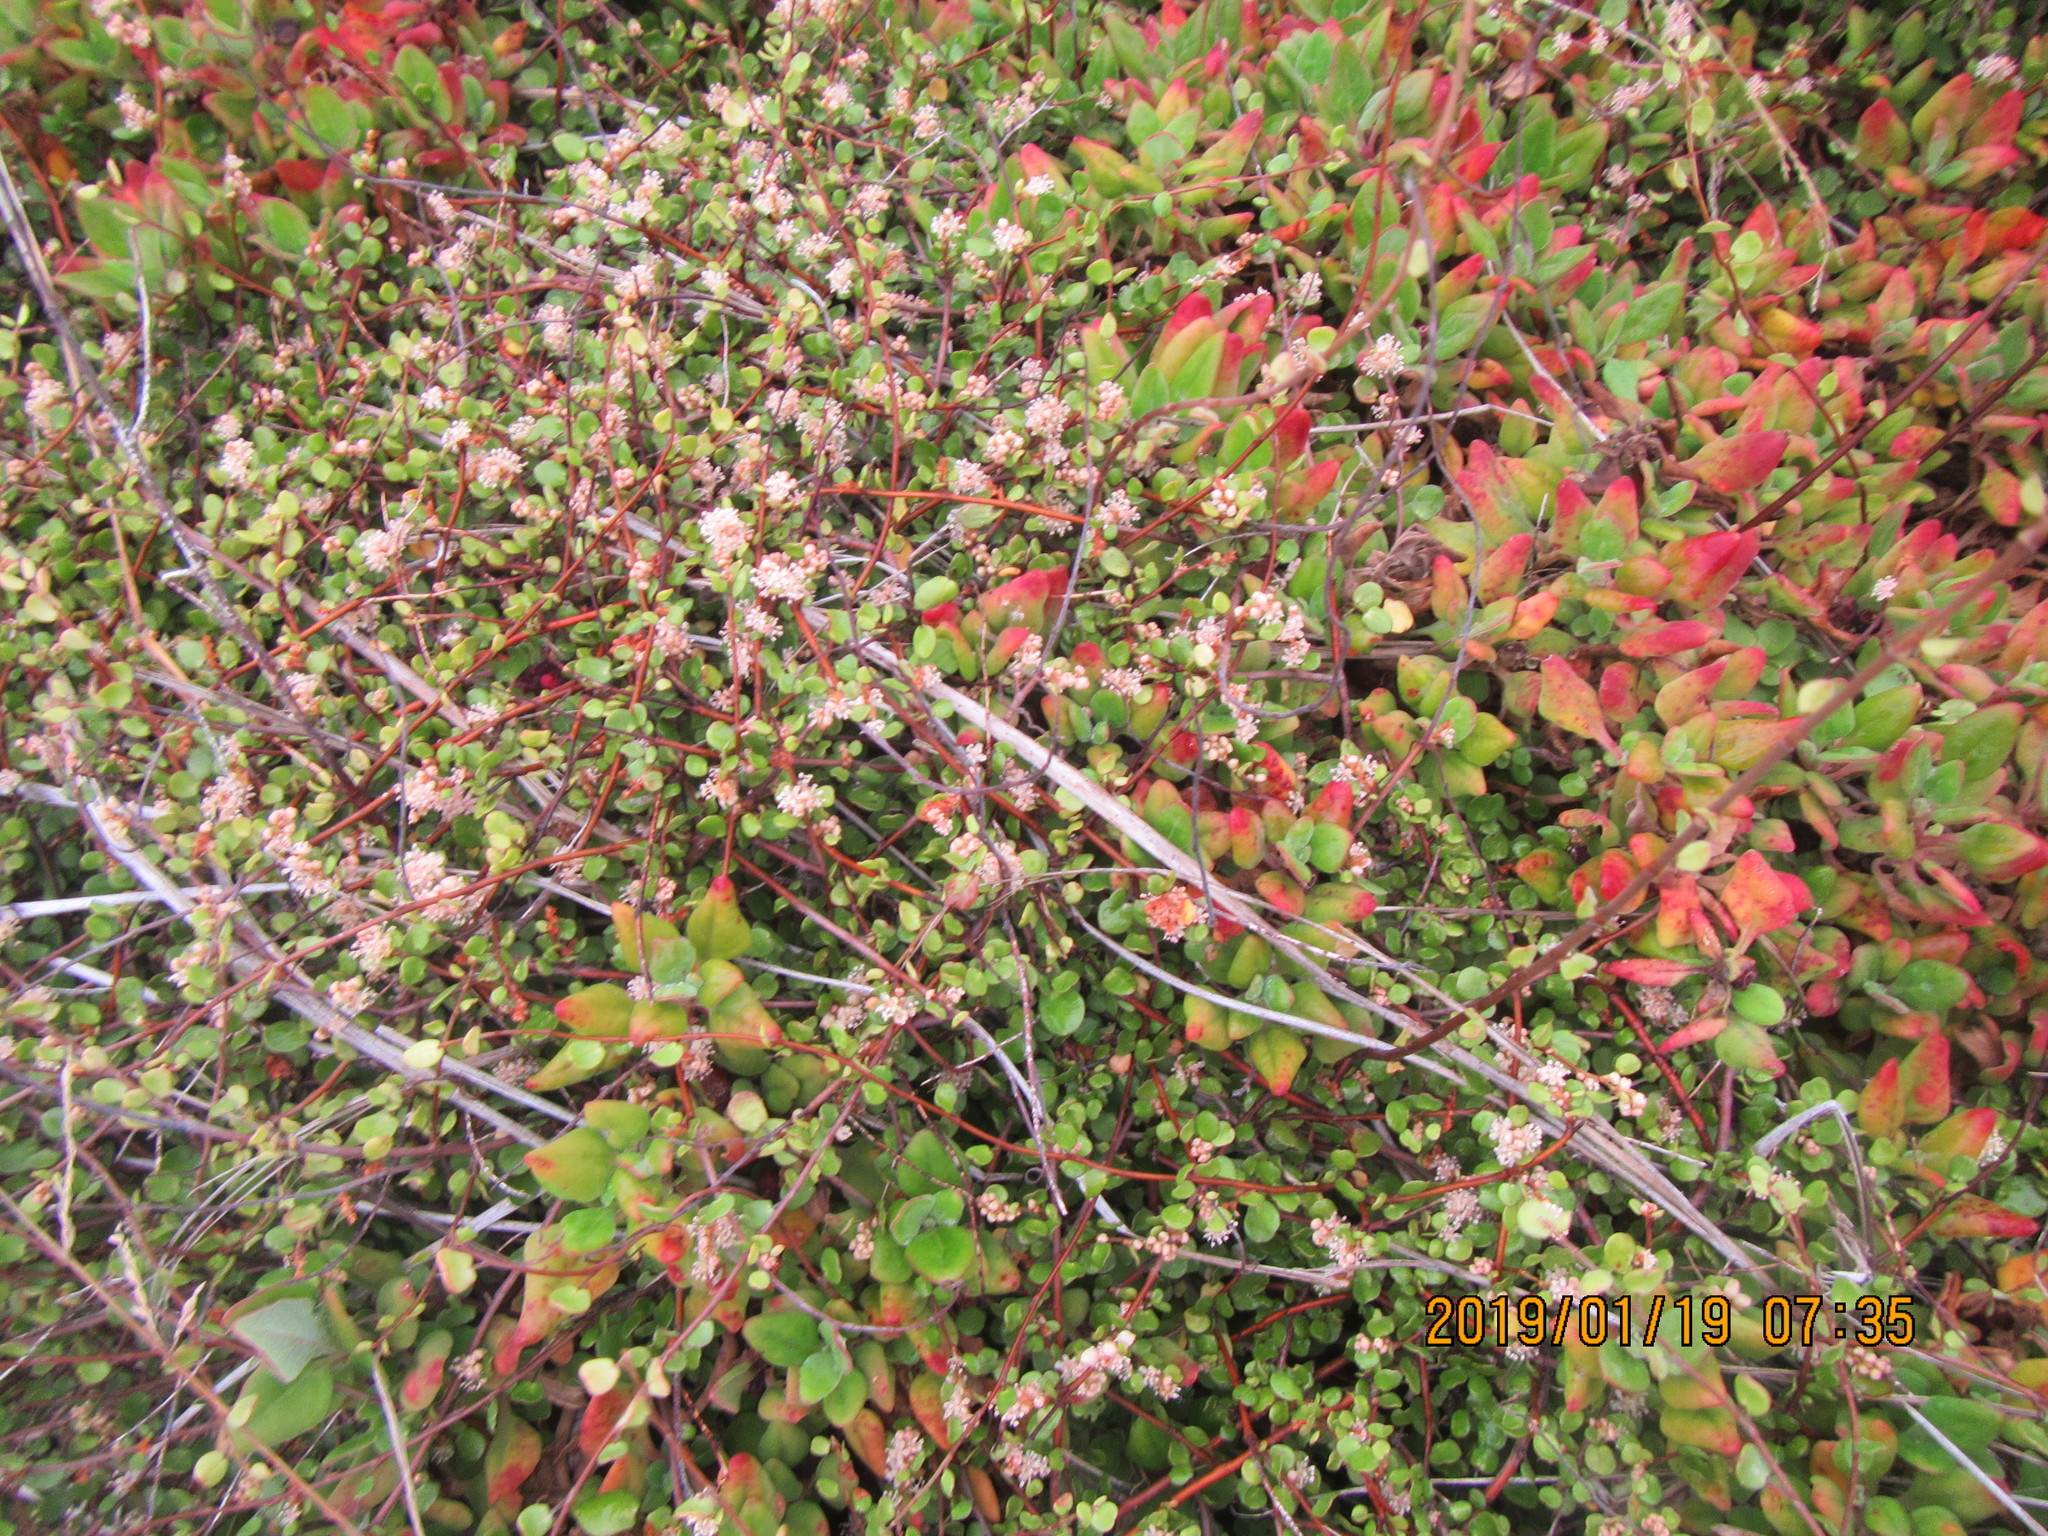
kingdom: Plantae
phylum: Tracheophyta
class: Magnoliopsida
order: Caryophyllales
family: Polygonaceae
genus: Muehlenbeckia
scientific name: Muehlenbeckia complexa
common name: Wireplant
